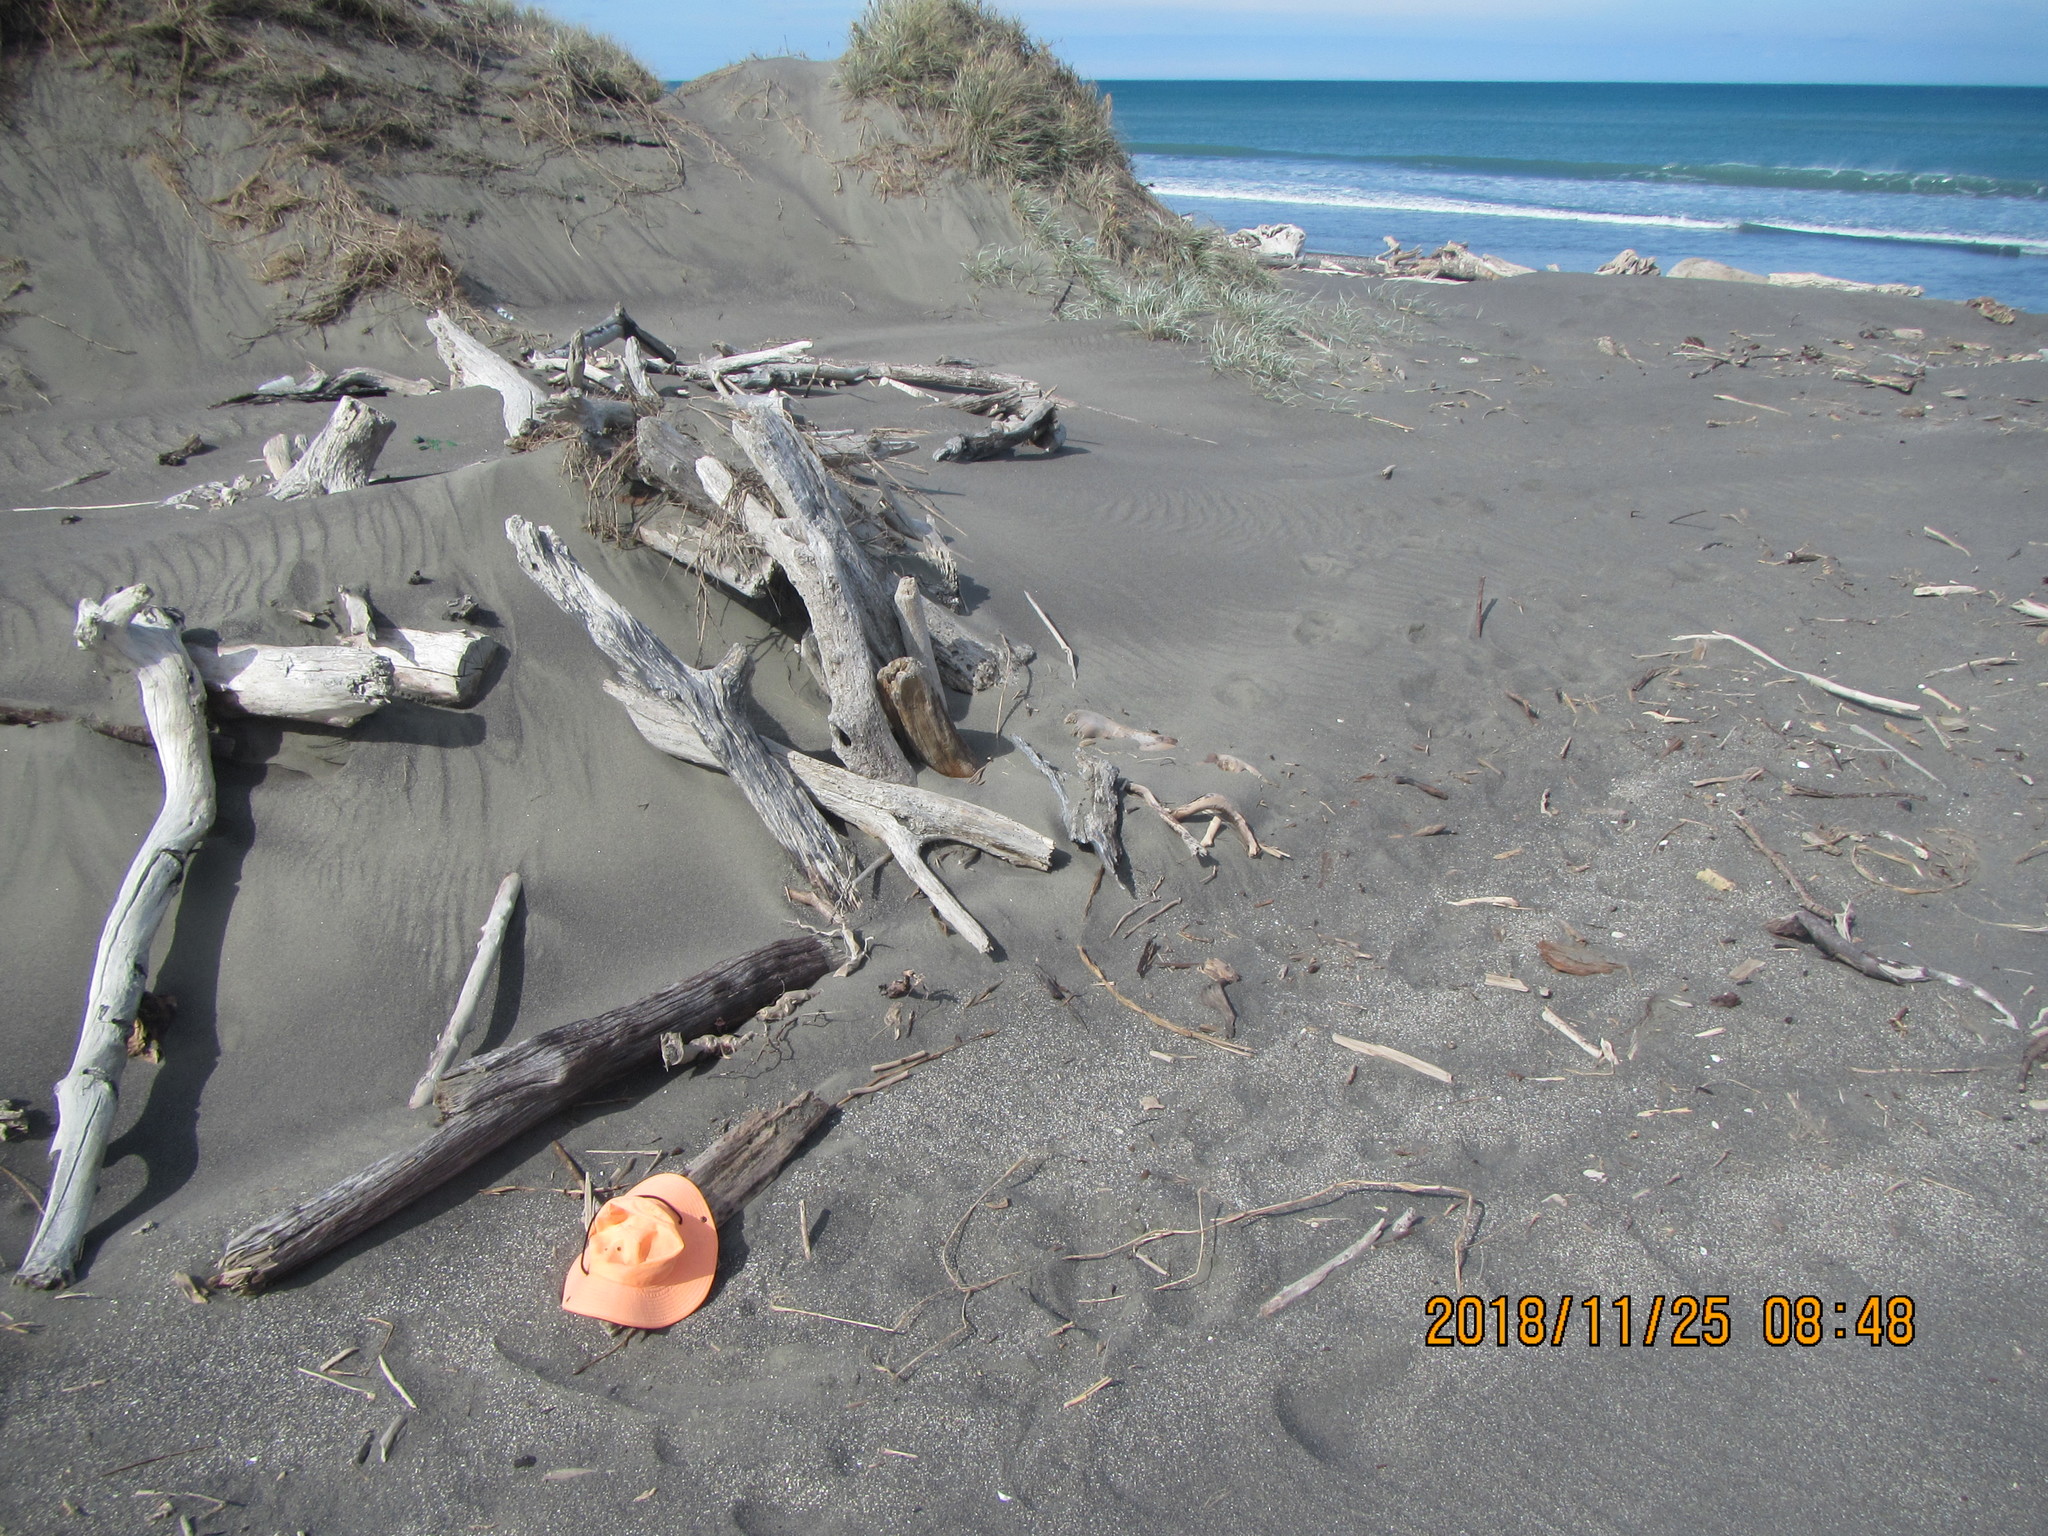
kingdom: Animalia
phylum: Arthropoda
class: Insecta
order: Coleoptera
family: Curculionidae
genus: Mesites
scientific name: Mesites pallidipennis
